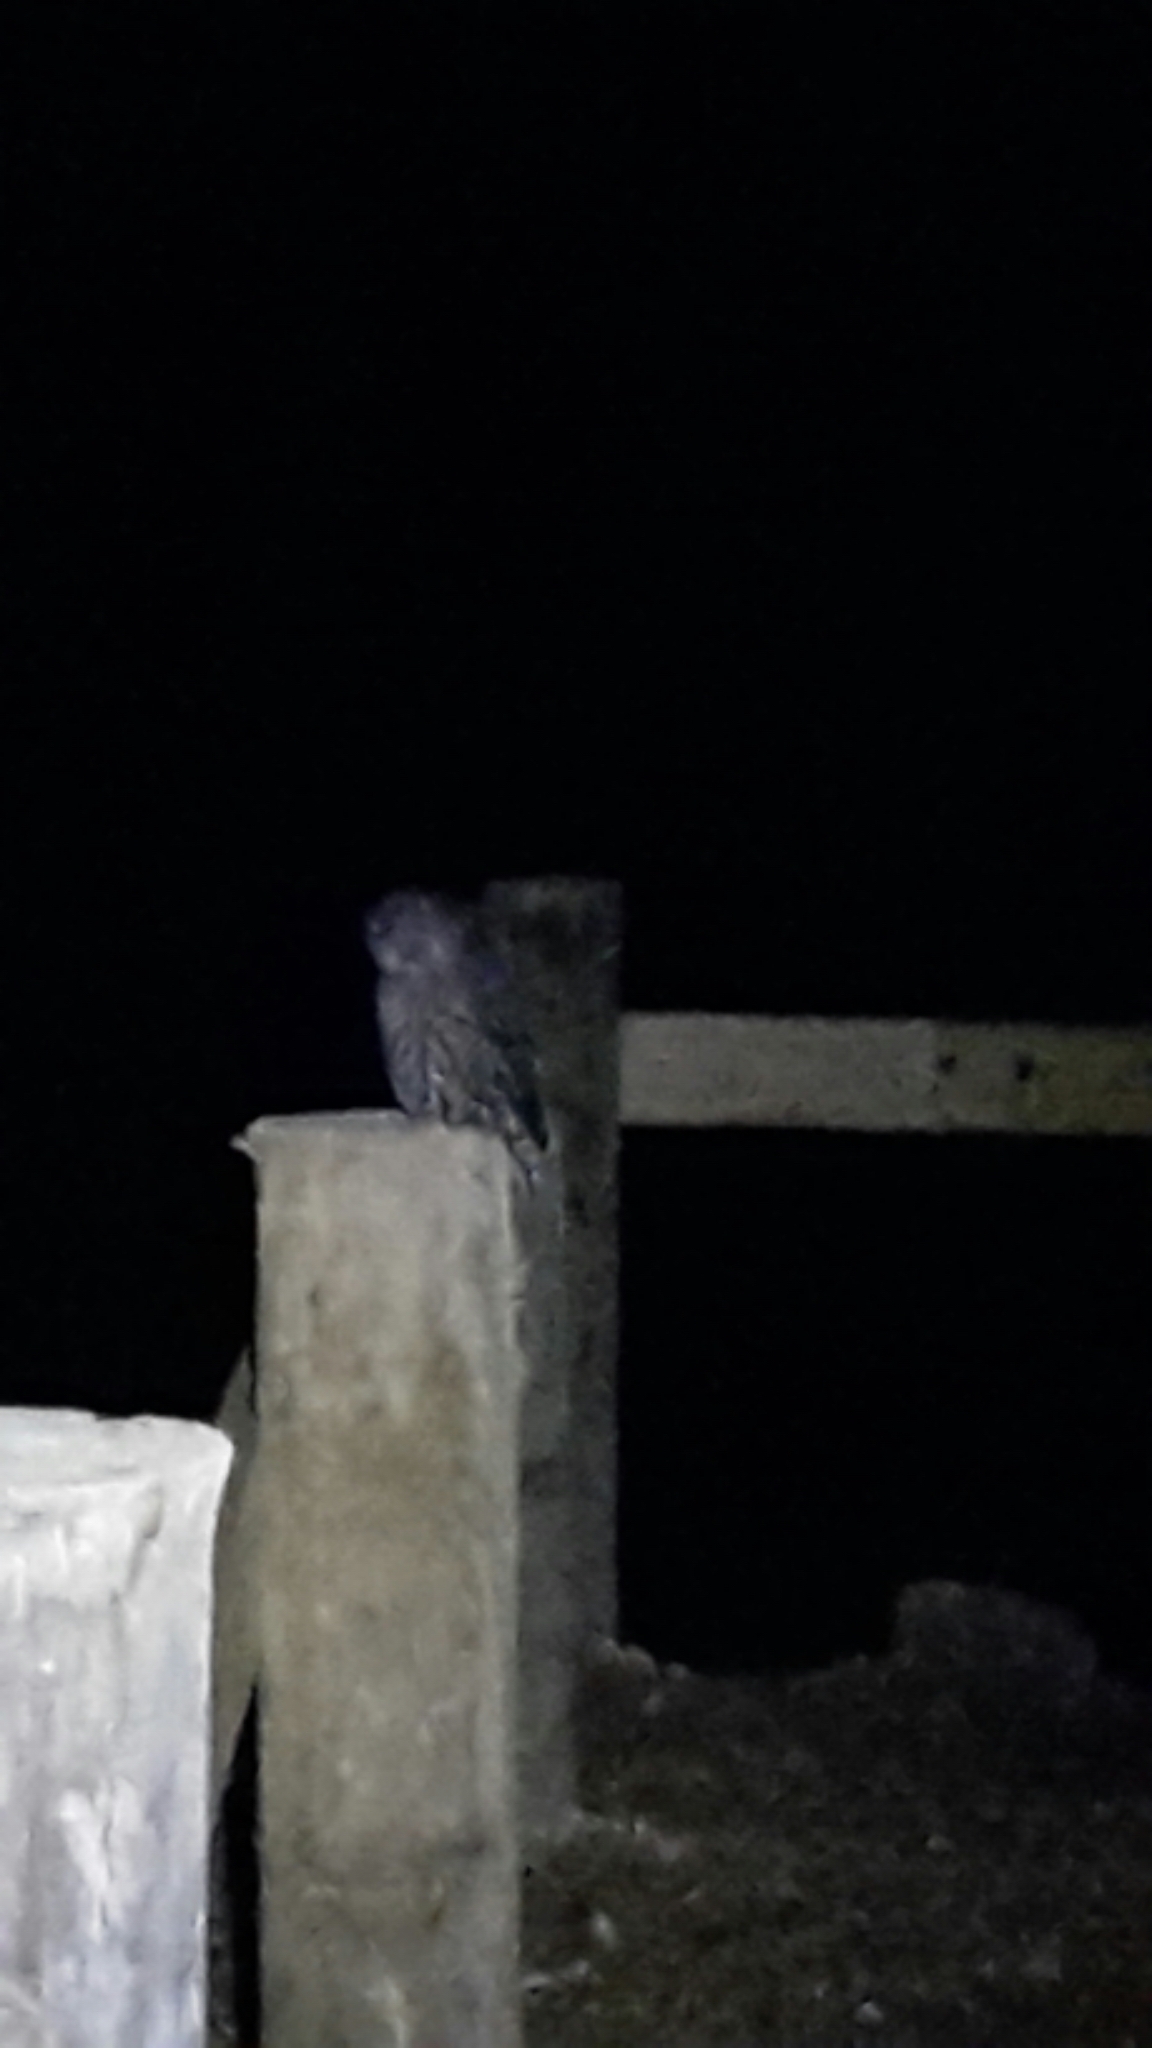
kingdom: Animalia
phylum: Chordata
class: Aves
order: Strigiformes
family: Strigidae
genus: Ninox
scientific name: Ninox novaeseelandiae
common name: Morepork
